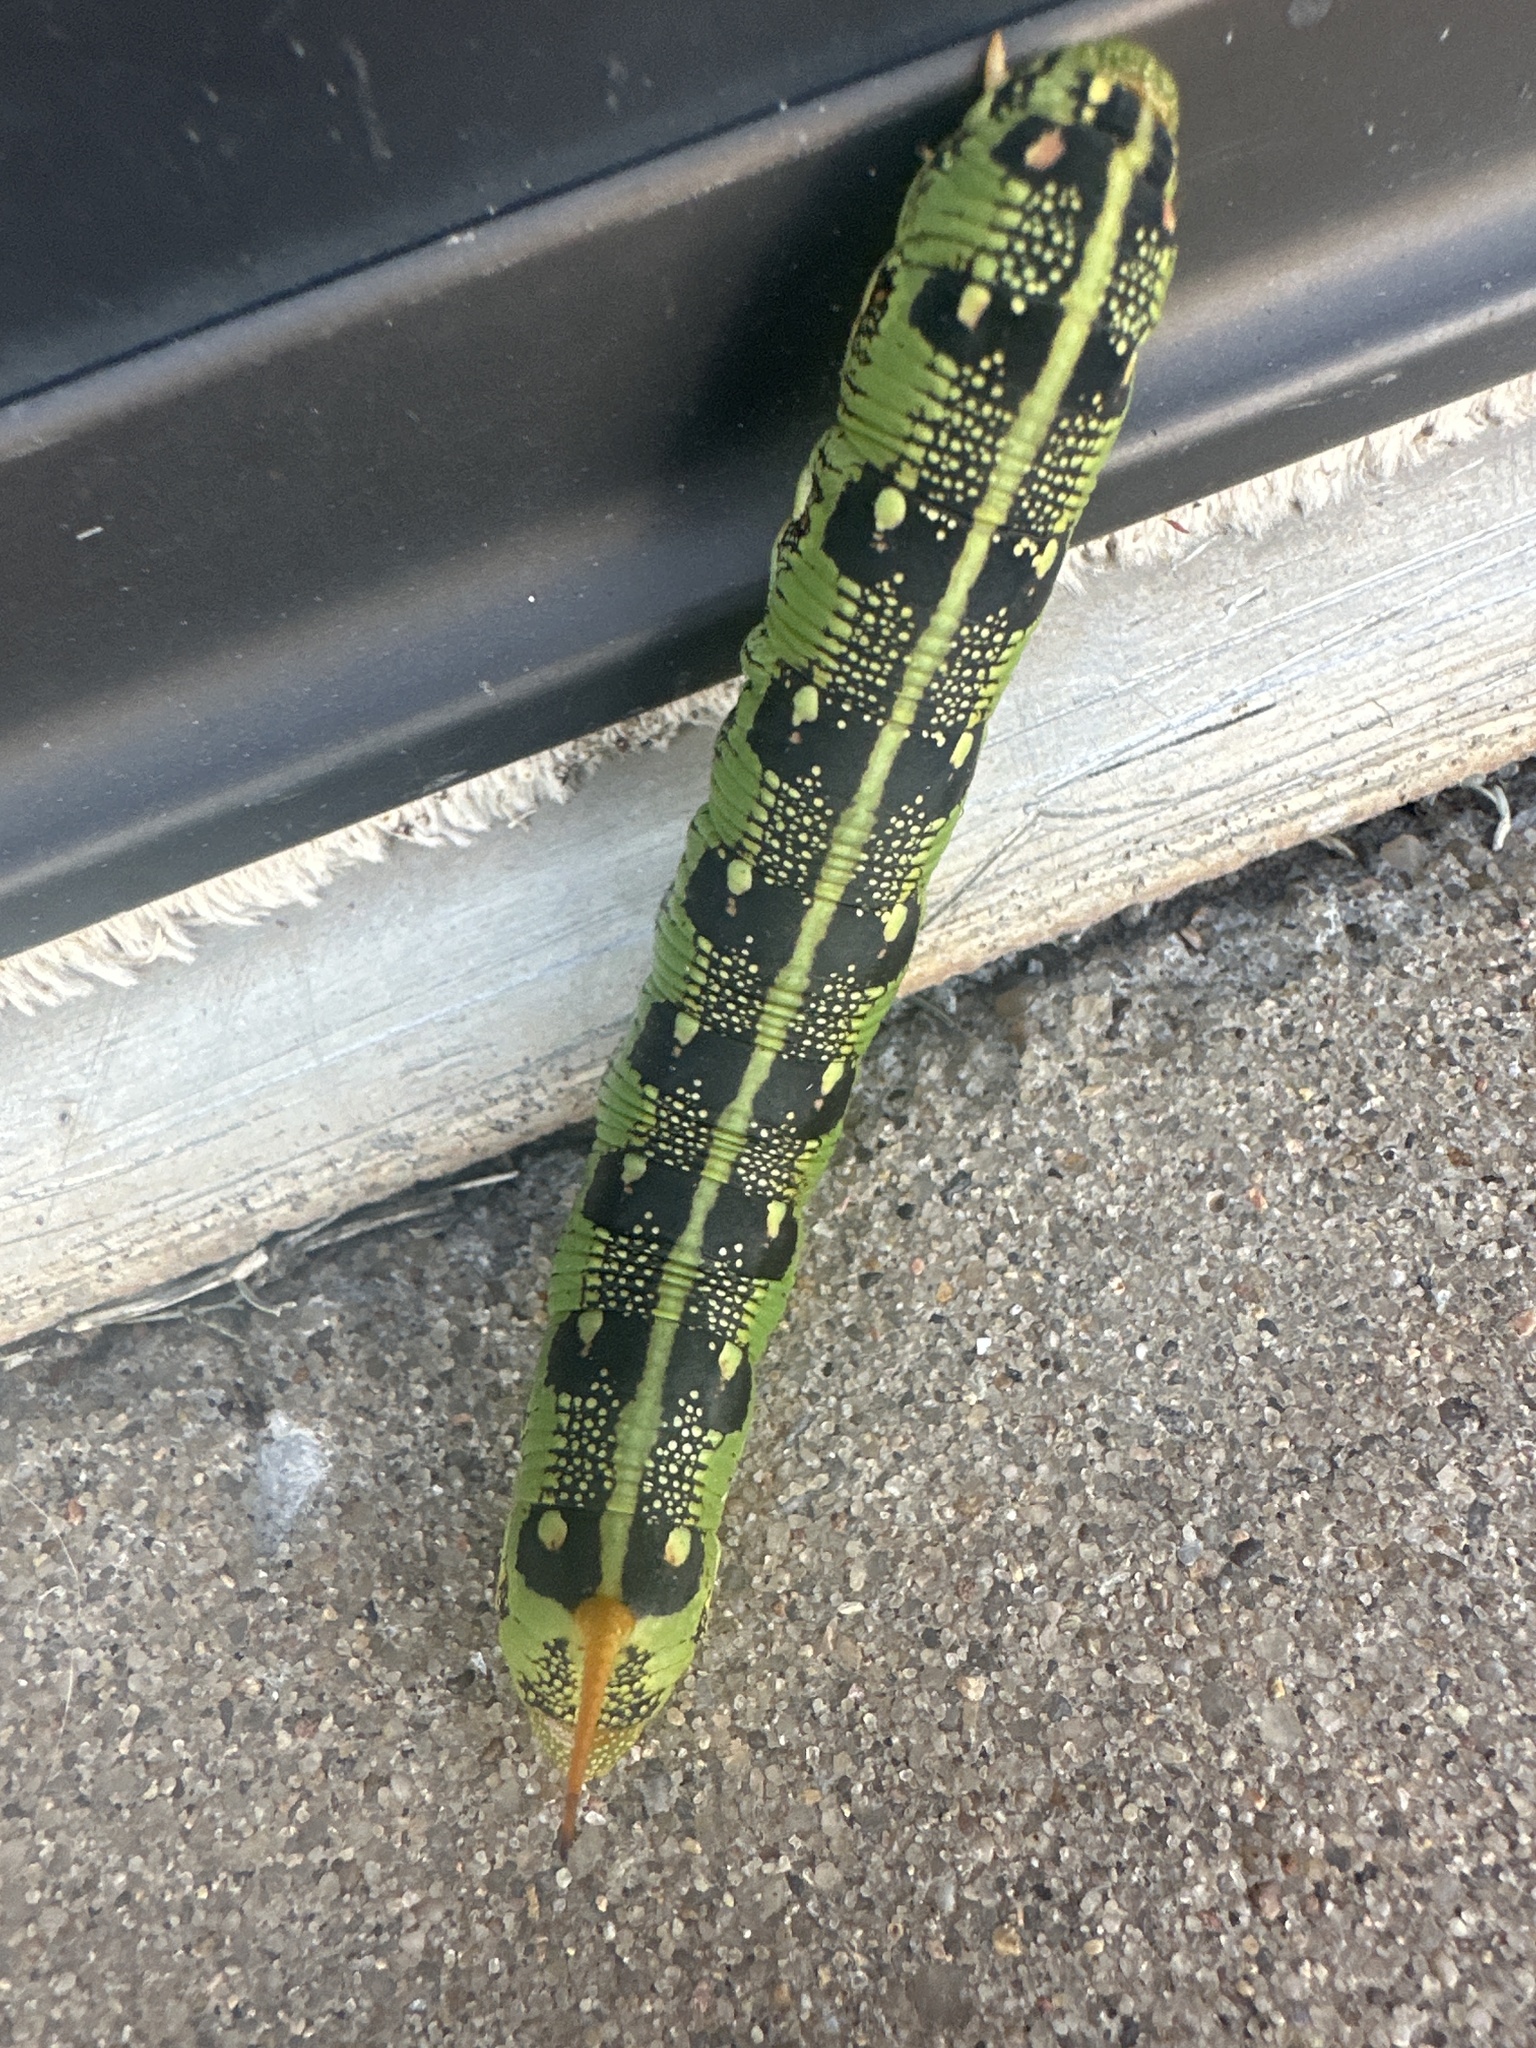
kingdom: Animalia
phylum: Arthropoda
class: Insecta
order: Lepidoptera
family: Sphingidae
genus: Hyles
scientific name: Hyles lineata
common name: White-lined sphinx
